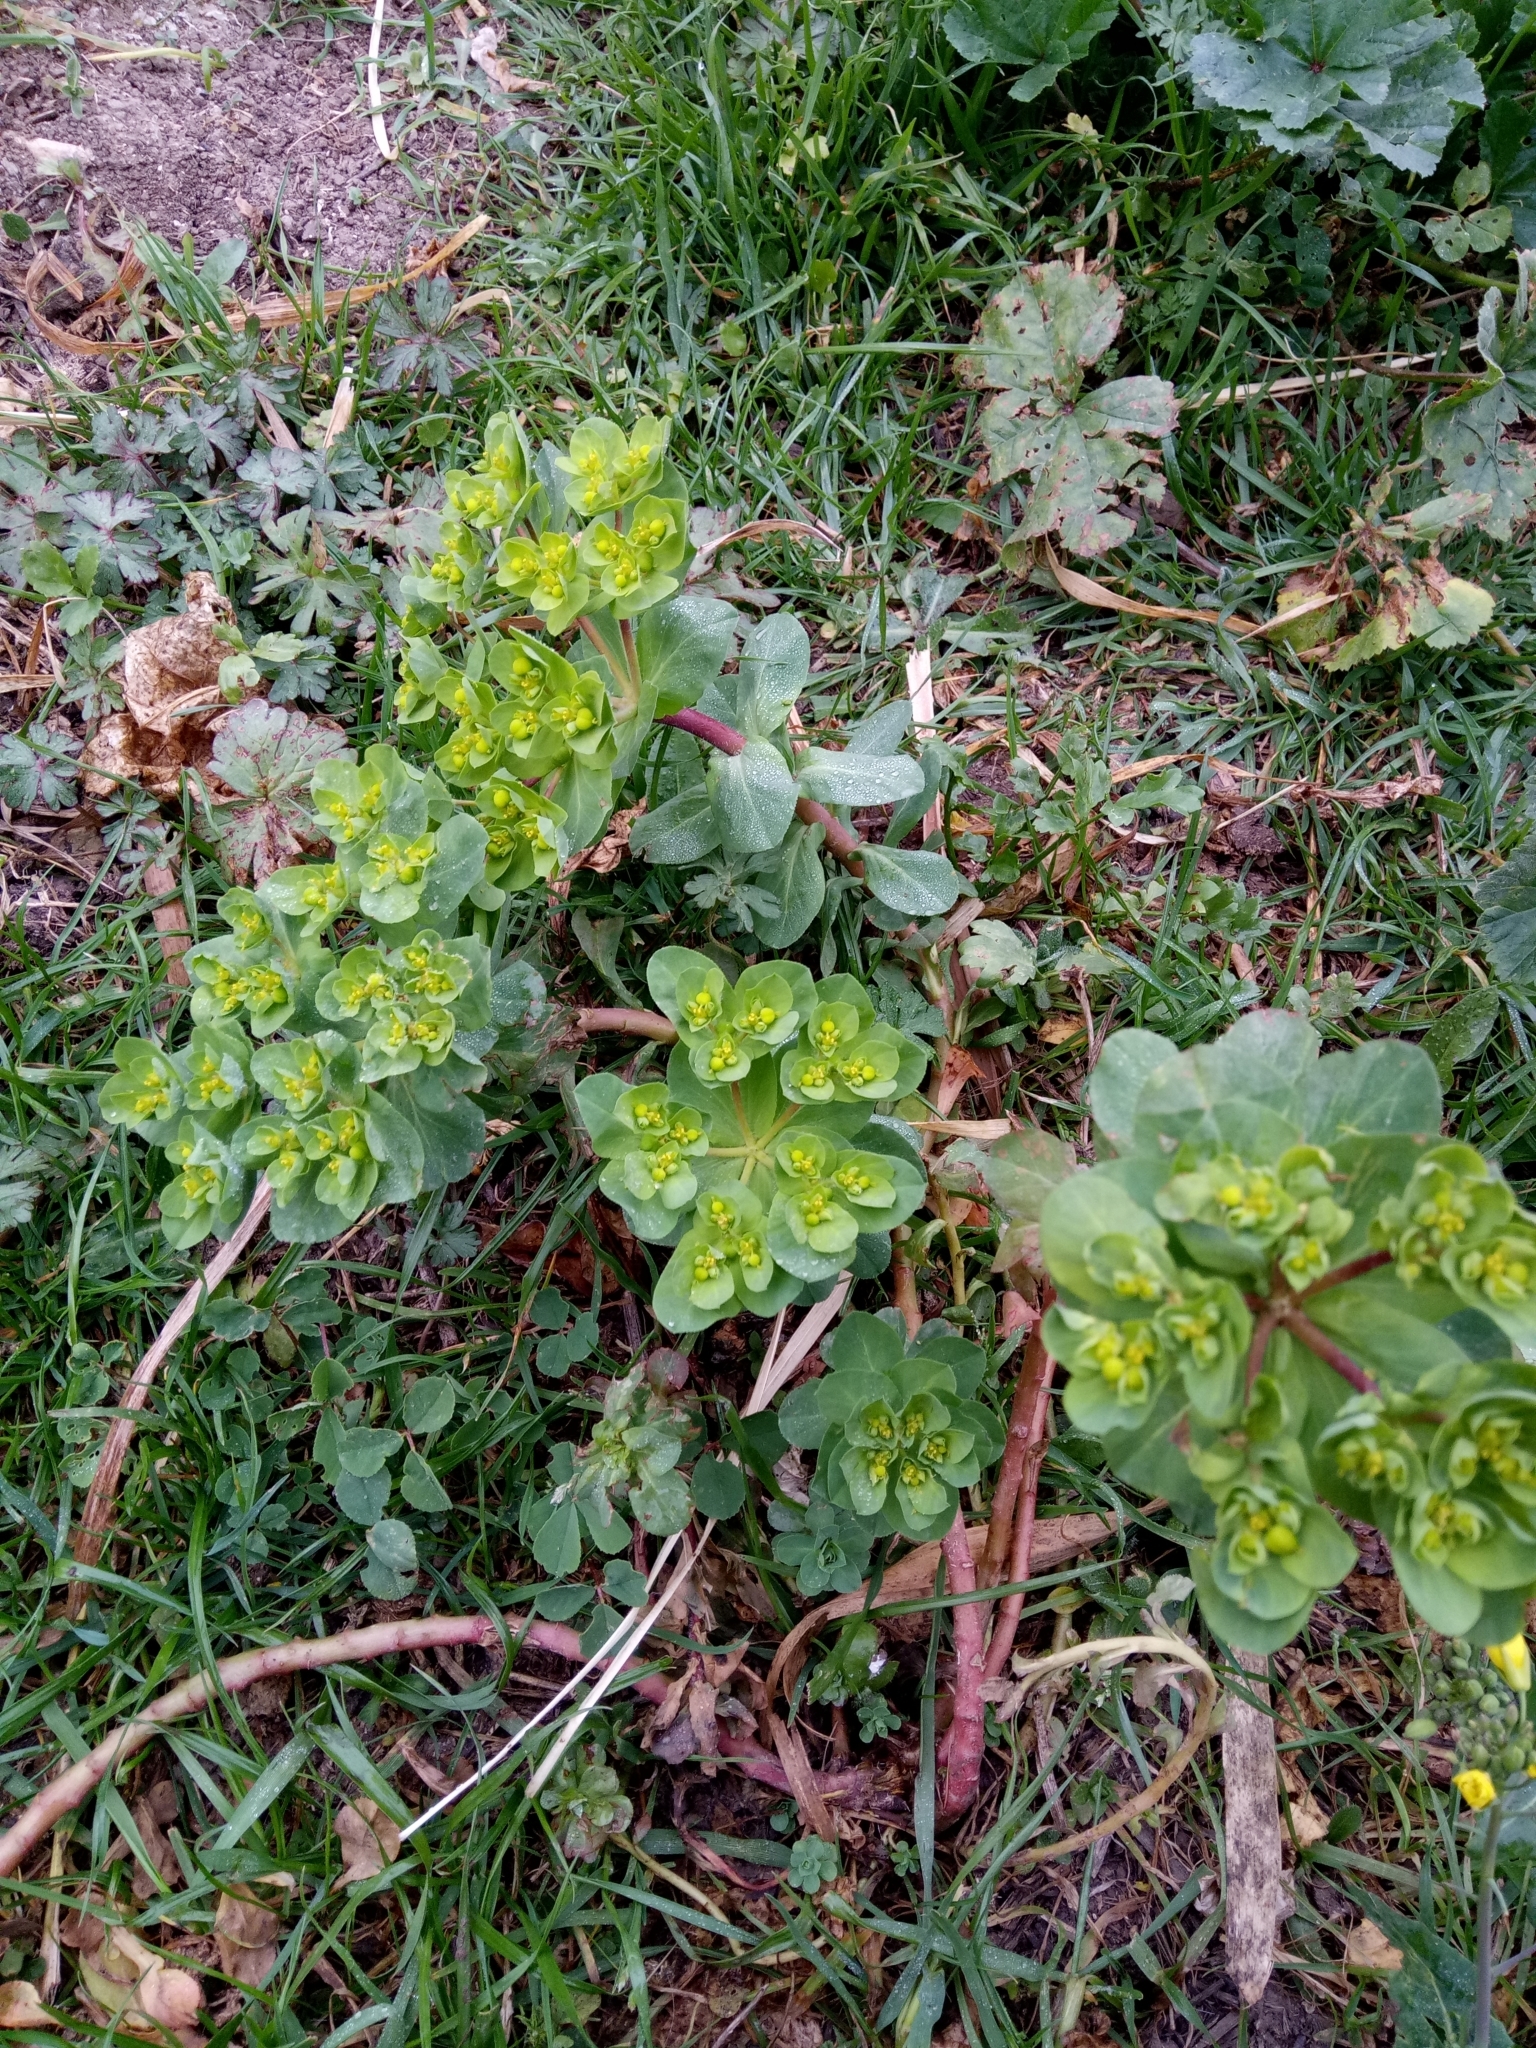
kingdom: Plantae
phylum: Tracheophyta
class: Magnoliopsida
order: Malpighiales
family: Euphorbiaceae
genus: Euphorbia
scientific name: Euphorbia helioscopia
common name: Sun spurge
